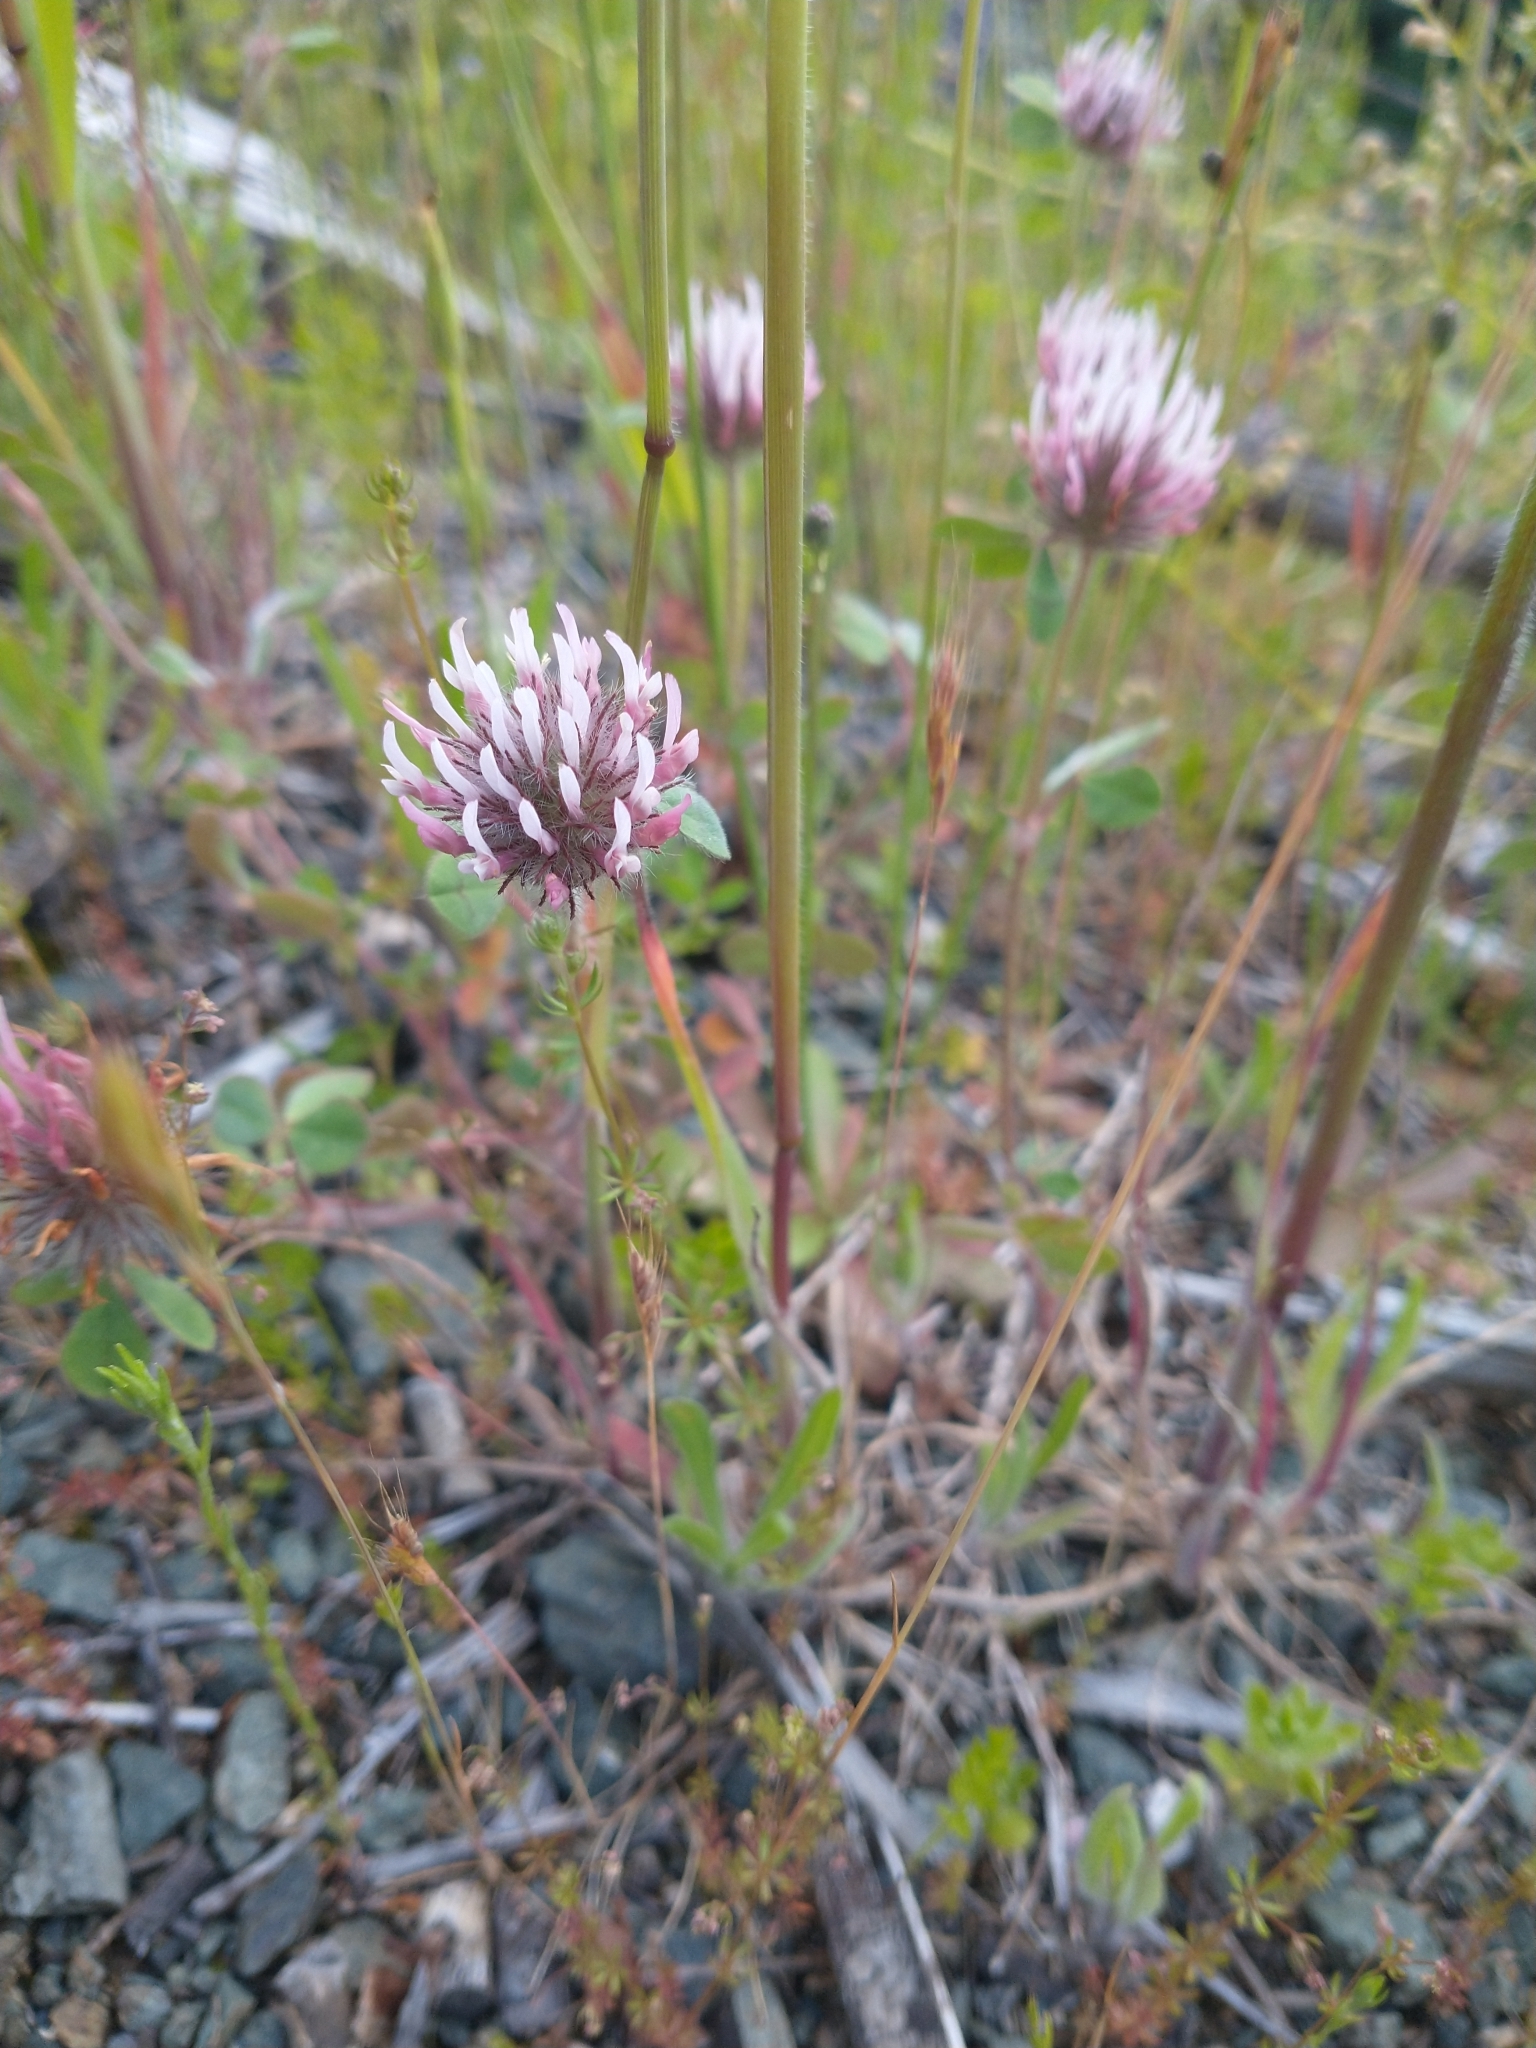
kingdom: Plantae
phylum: Tracheophyta
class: Magnoliopsida
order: Fabales
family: Fabaceae
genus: Trifolium
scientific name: Trifolium hirtum
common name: Rose clover
